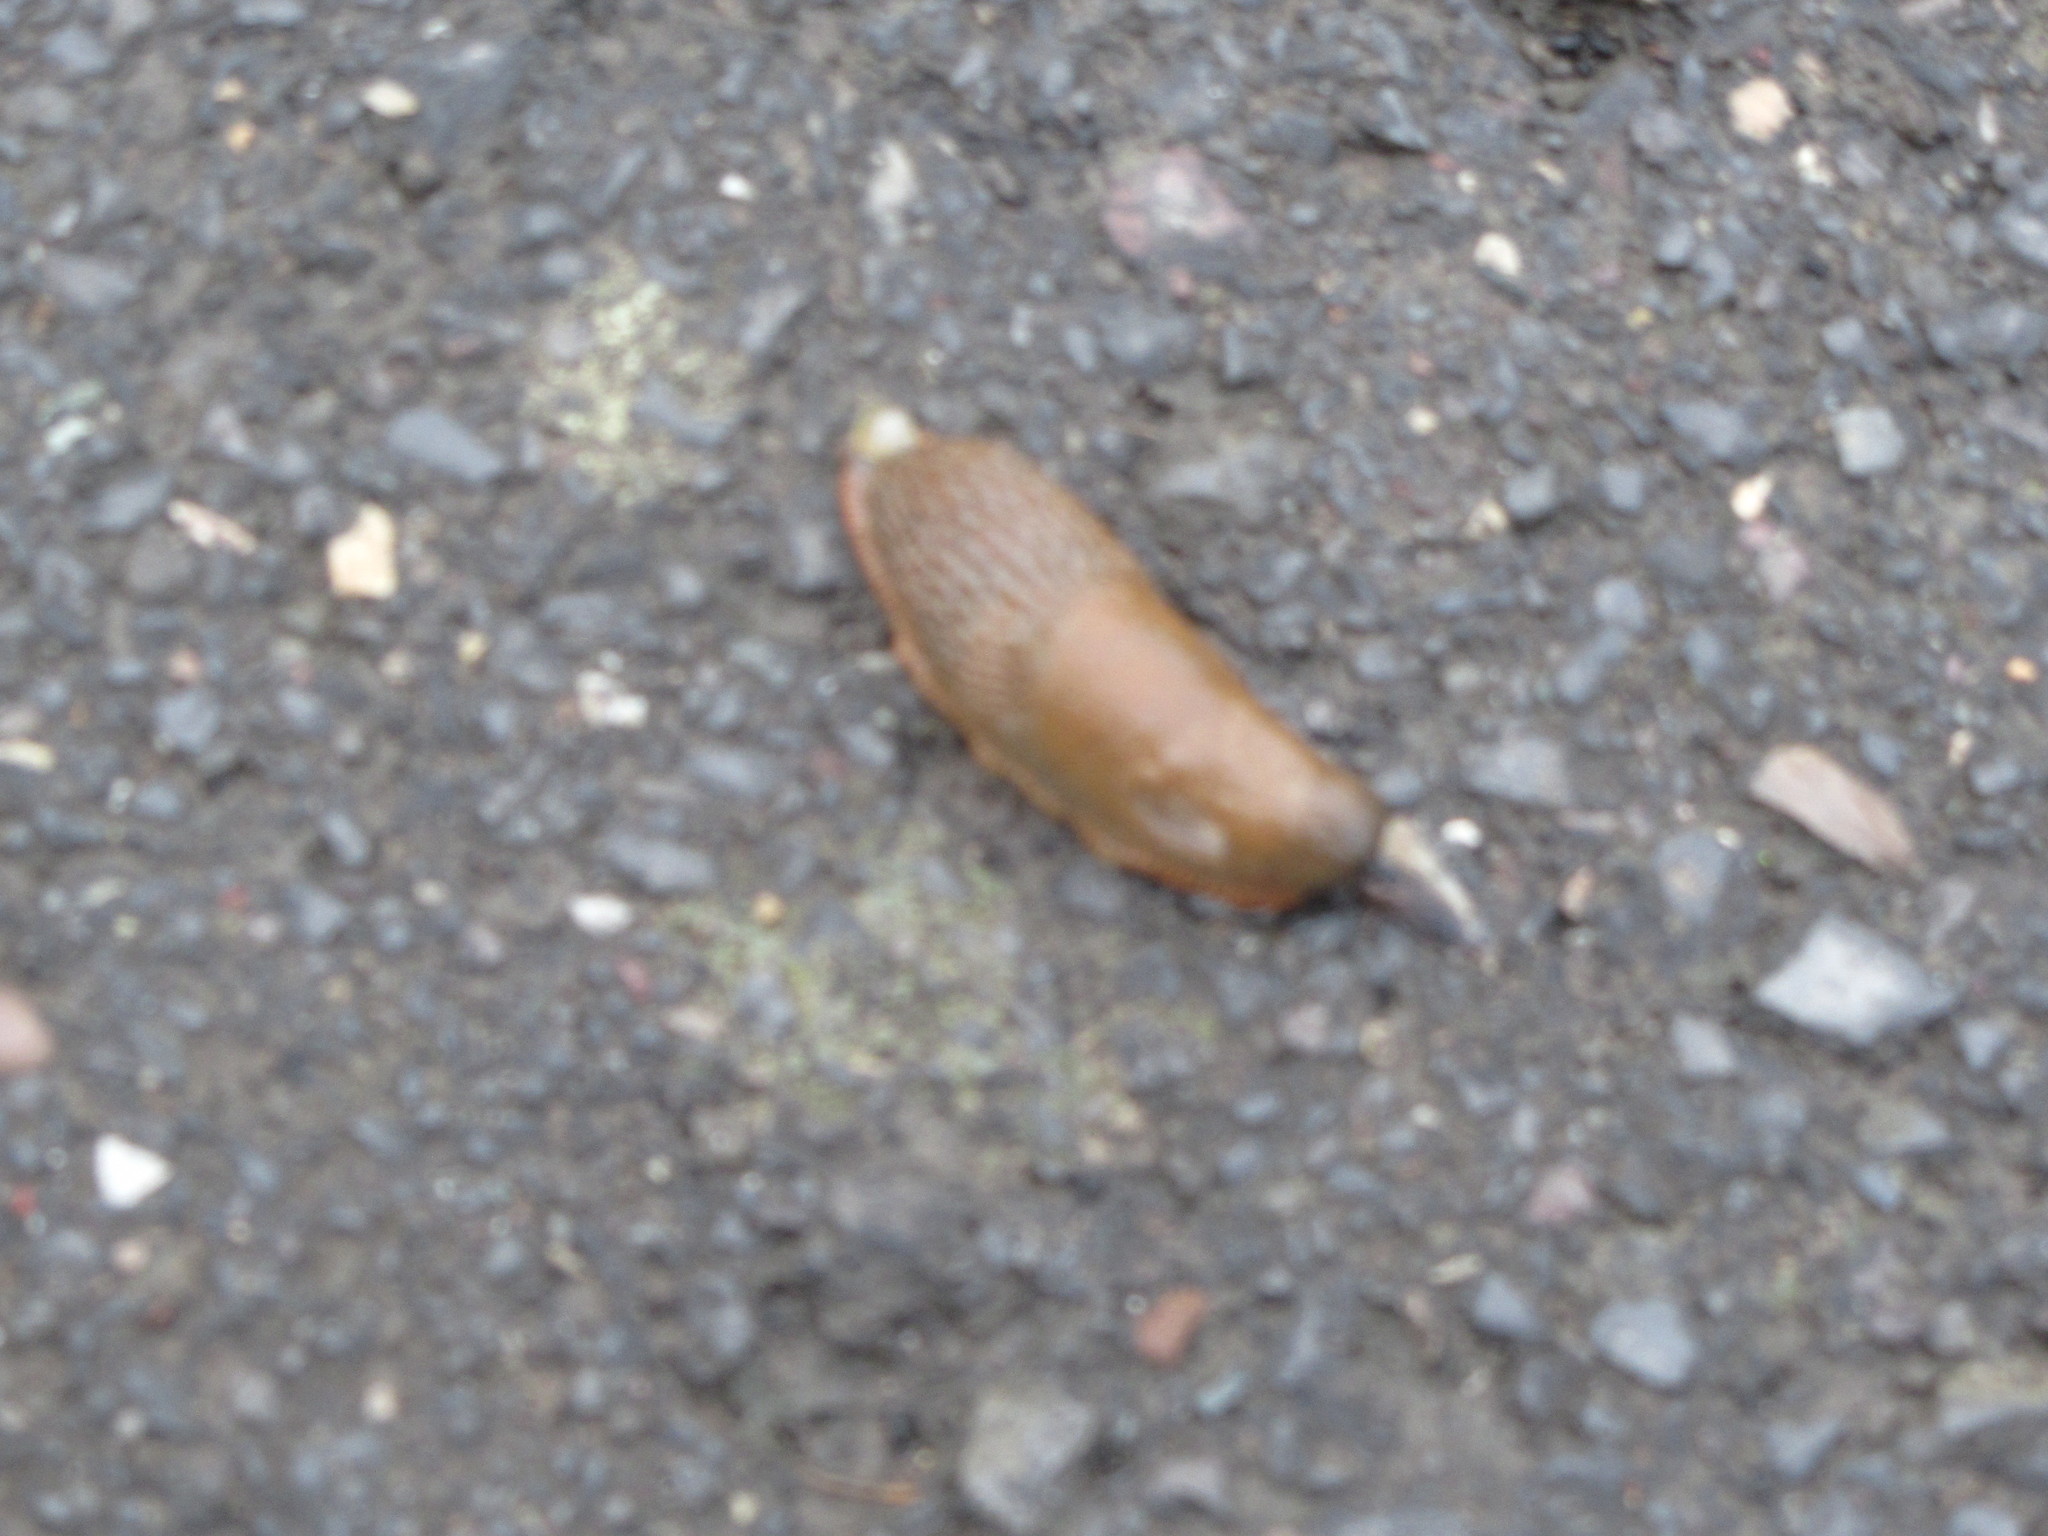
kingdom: Animalia
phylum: Mollusca
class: Gastropoda
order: Stylommatophora
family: Arionidae
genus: Arion
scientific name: Arion
